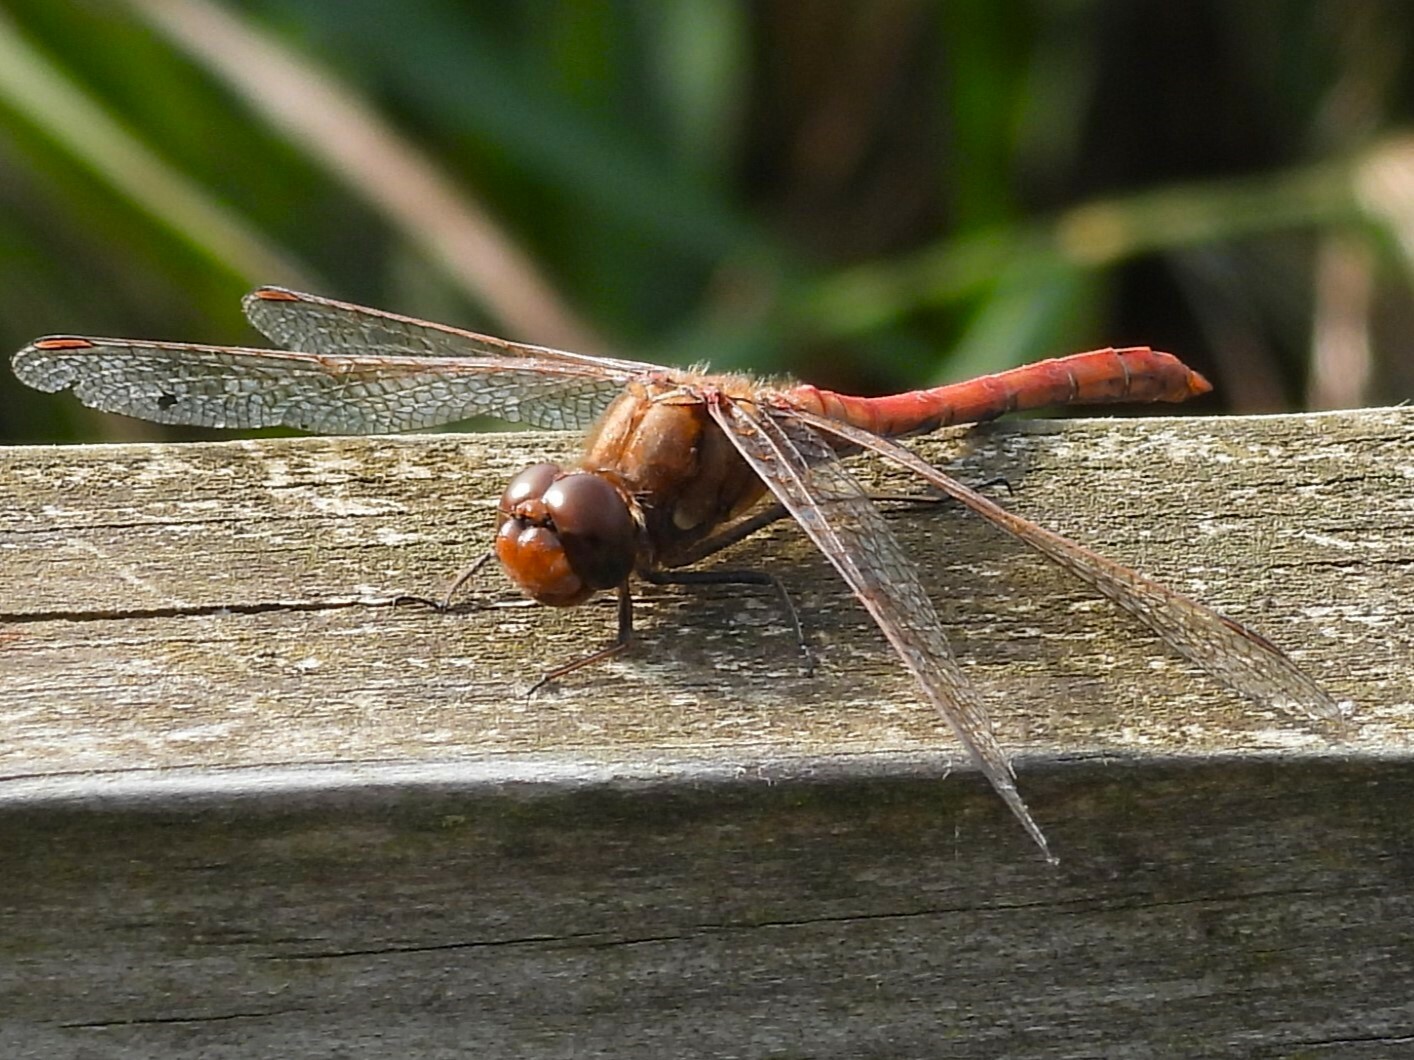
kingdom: Animalia
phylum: Arthropoda
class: Insecta
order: Odonata
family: Libellulidae
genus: Sympetrum
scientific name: Sympetrum striolatum
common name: Common darter
